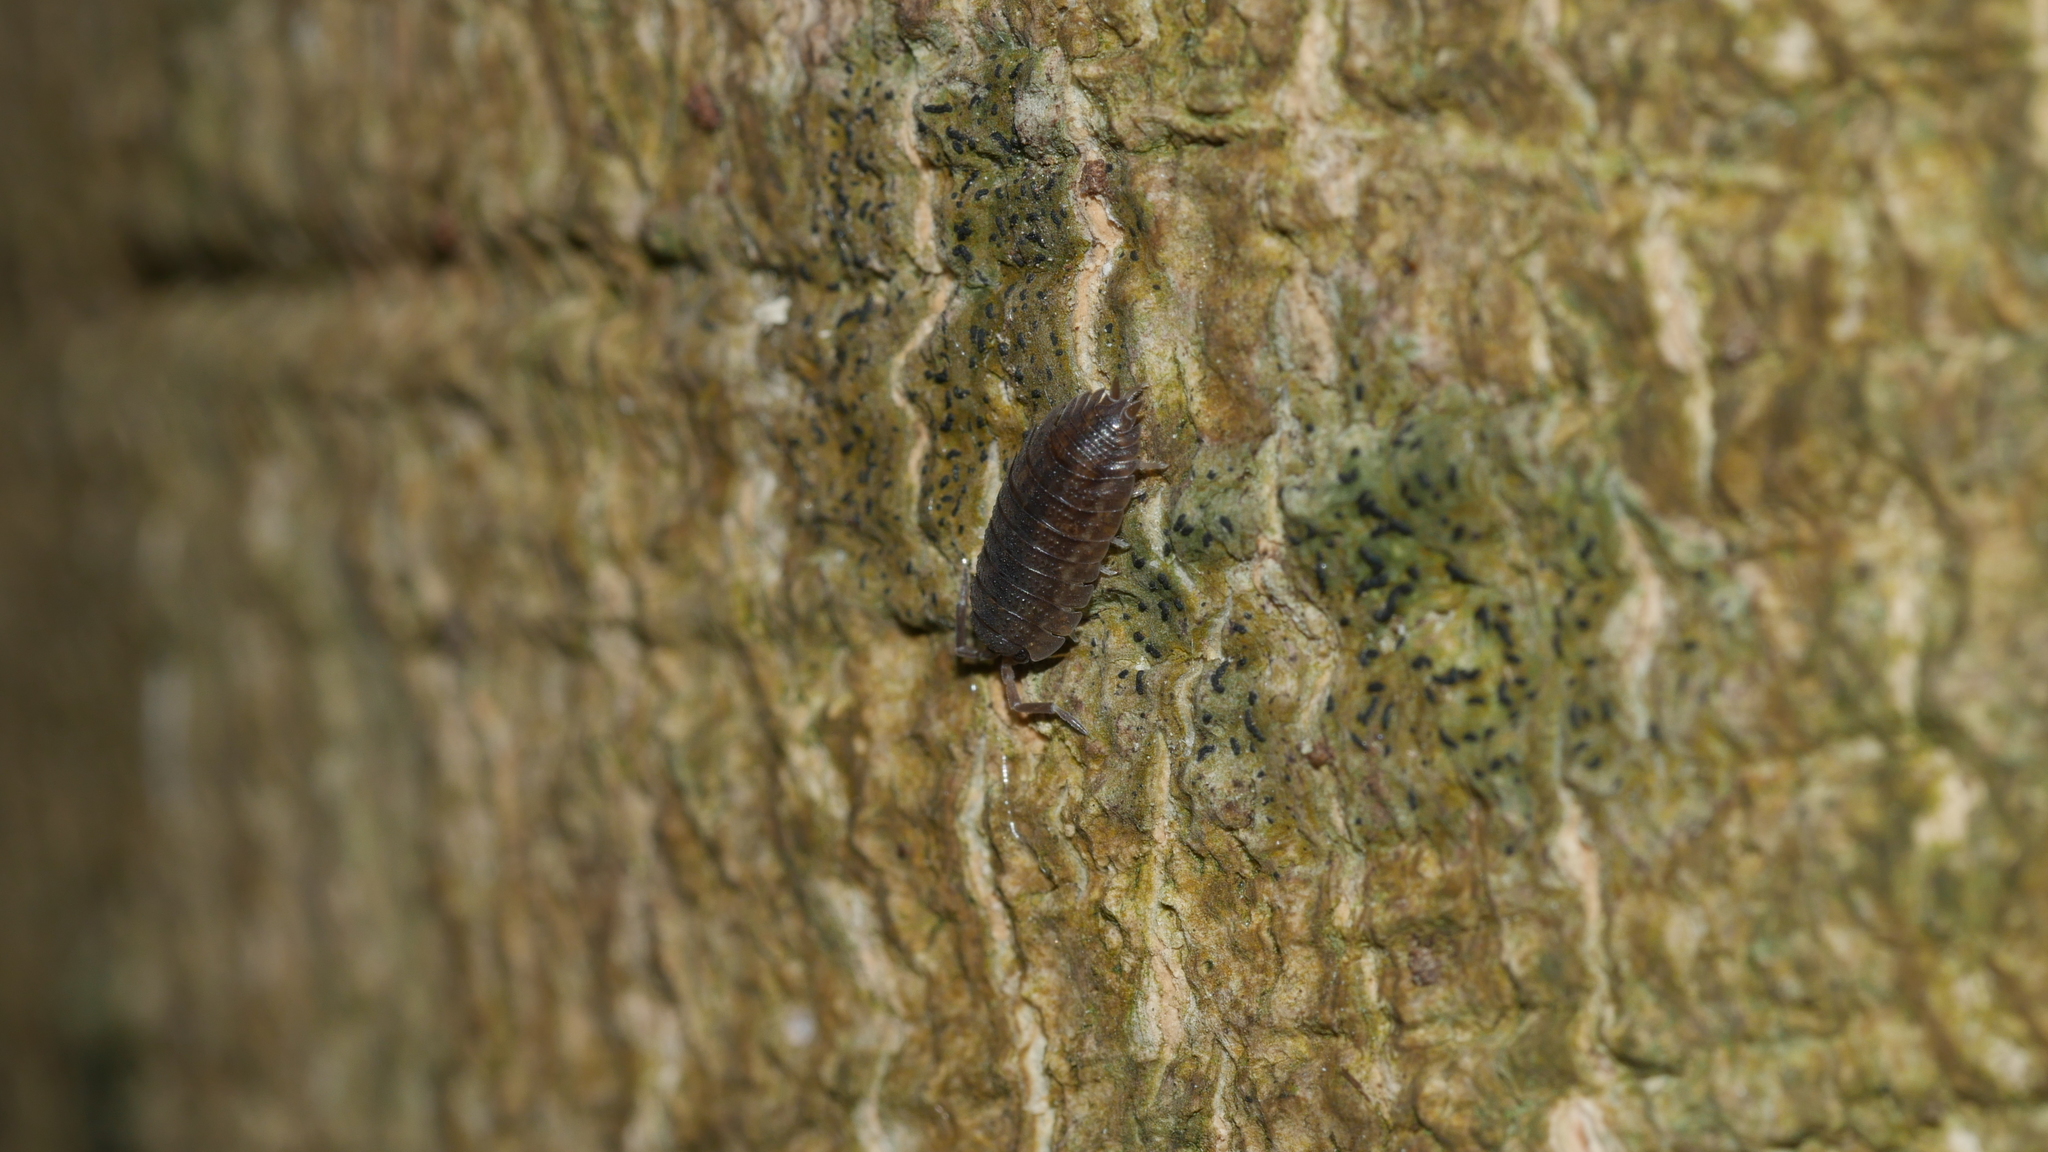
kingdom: Animalia
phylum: Arthropoda
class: Malacostraca
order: Isopoda
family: Porcellionidae
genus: Porcellio
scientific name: Porcellio scaber
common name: Common rough woodlouse
